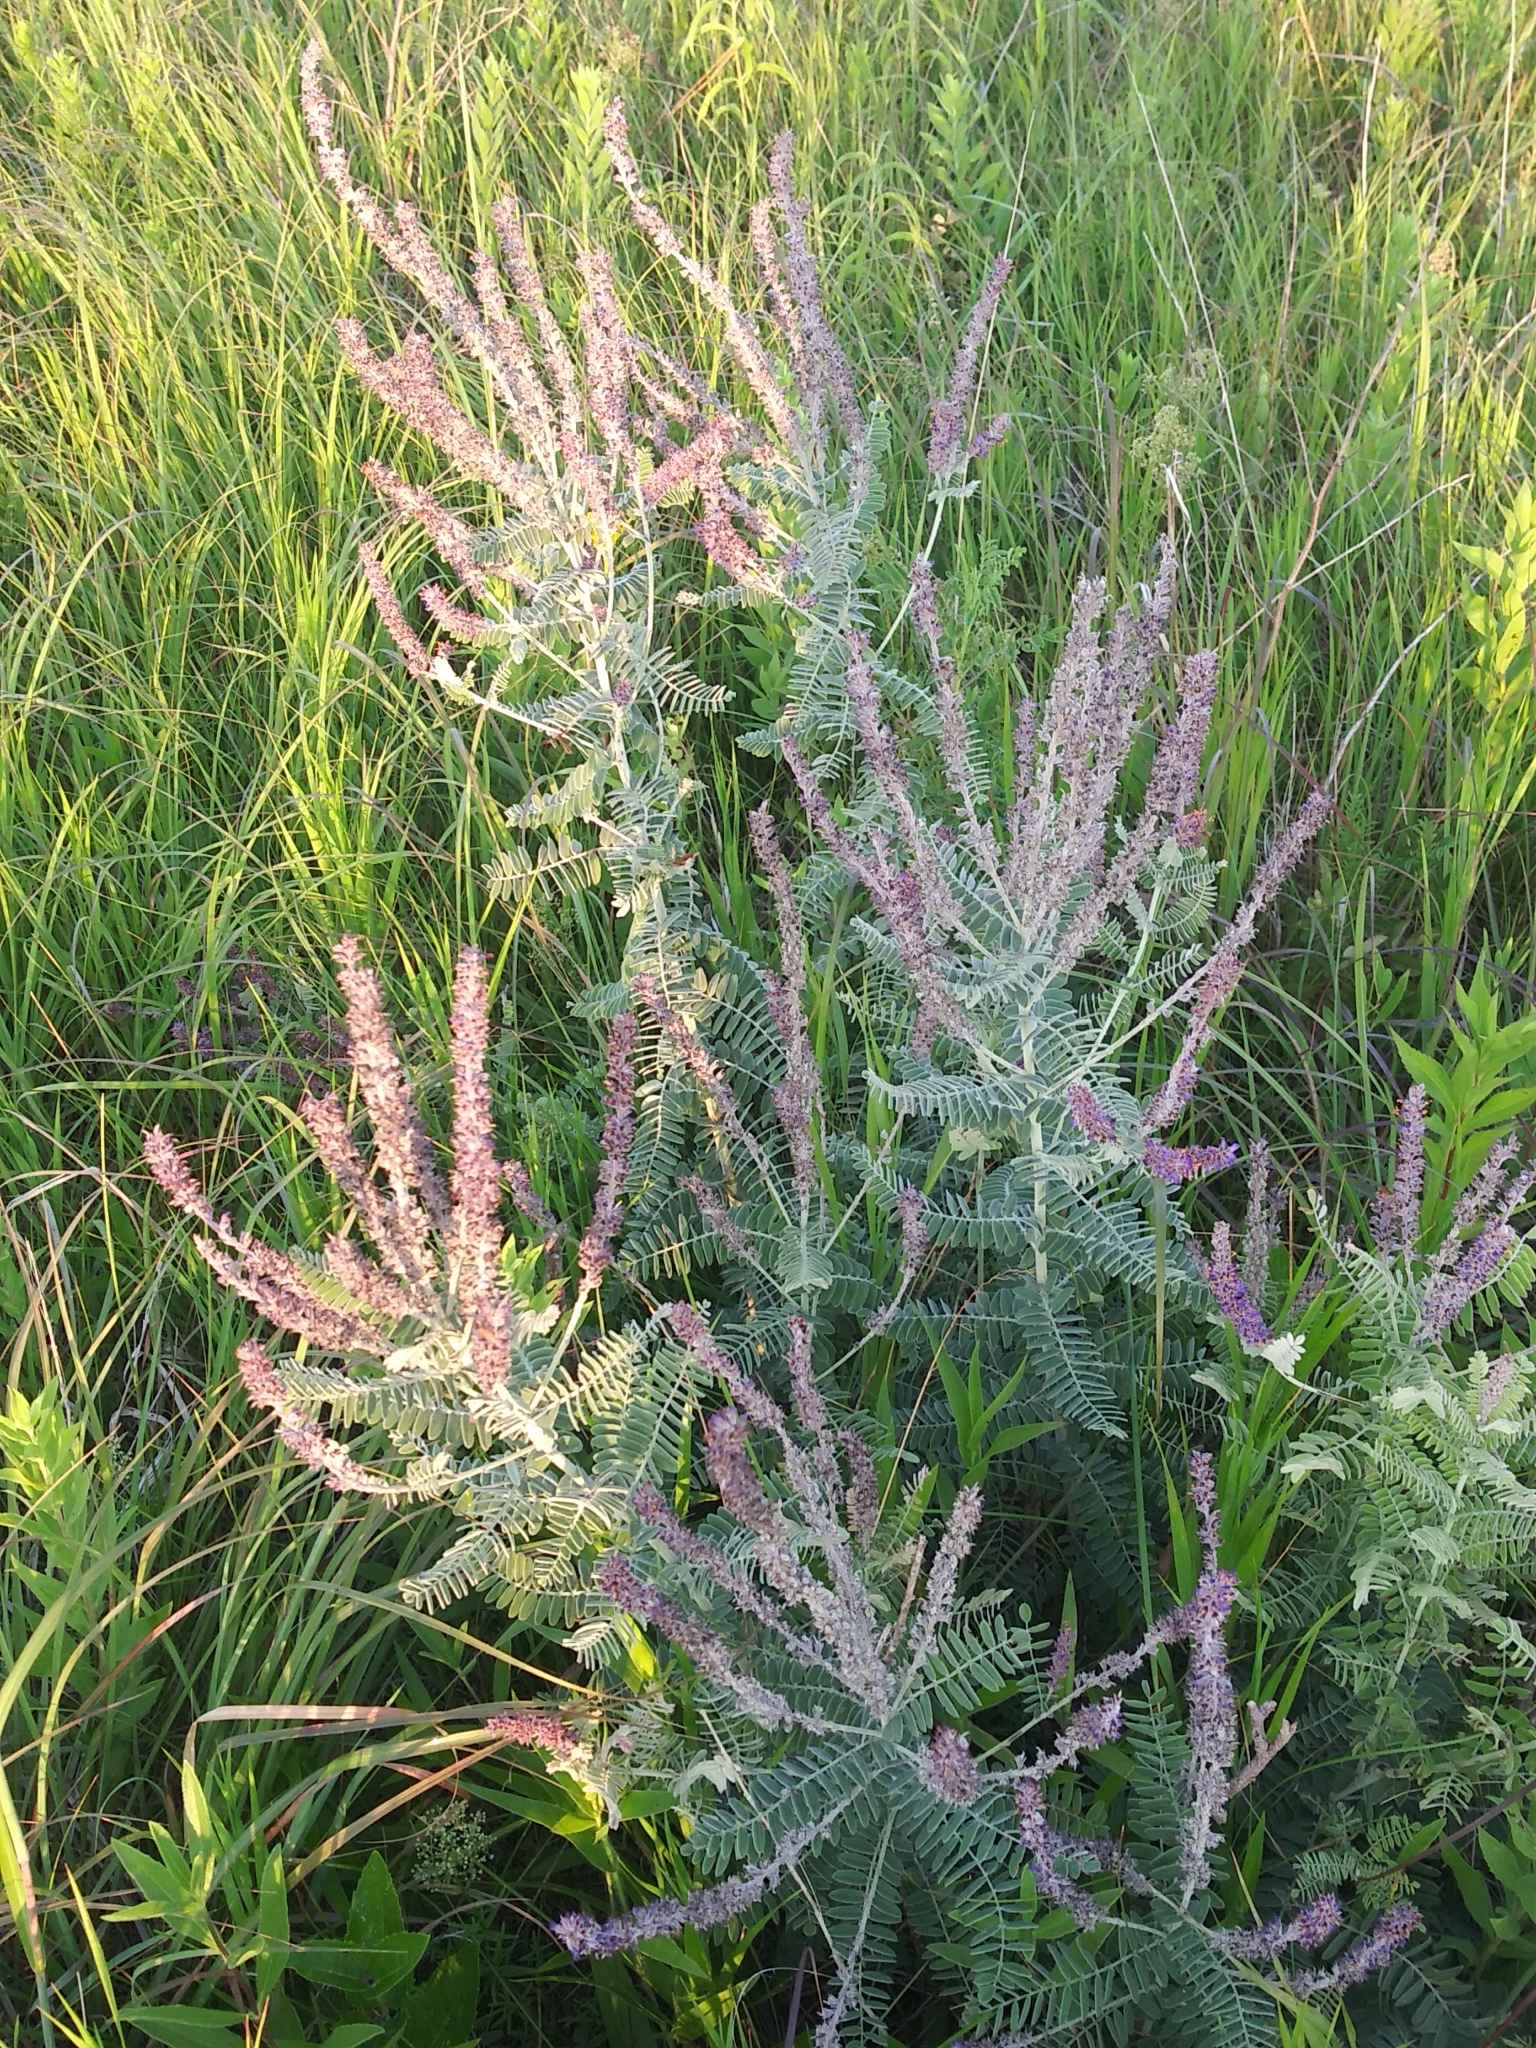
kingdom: Plantae
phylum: Tracheophyta
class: Magnoliopsida
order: Fabales
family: Fabaceae
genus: Amorpha
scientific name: Amorpha canescens
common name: Leadplant
